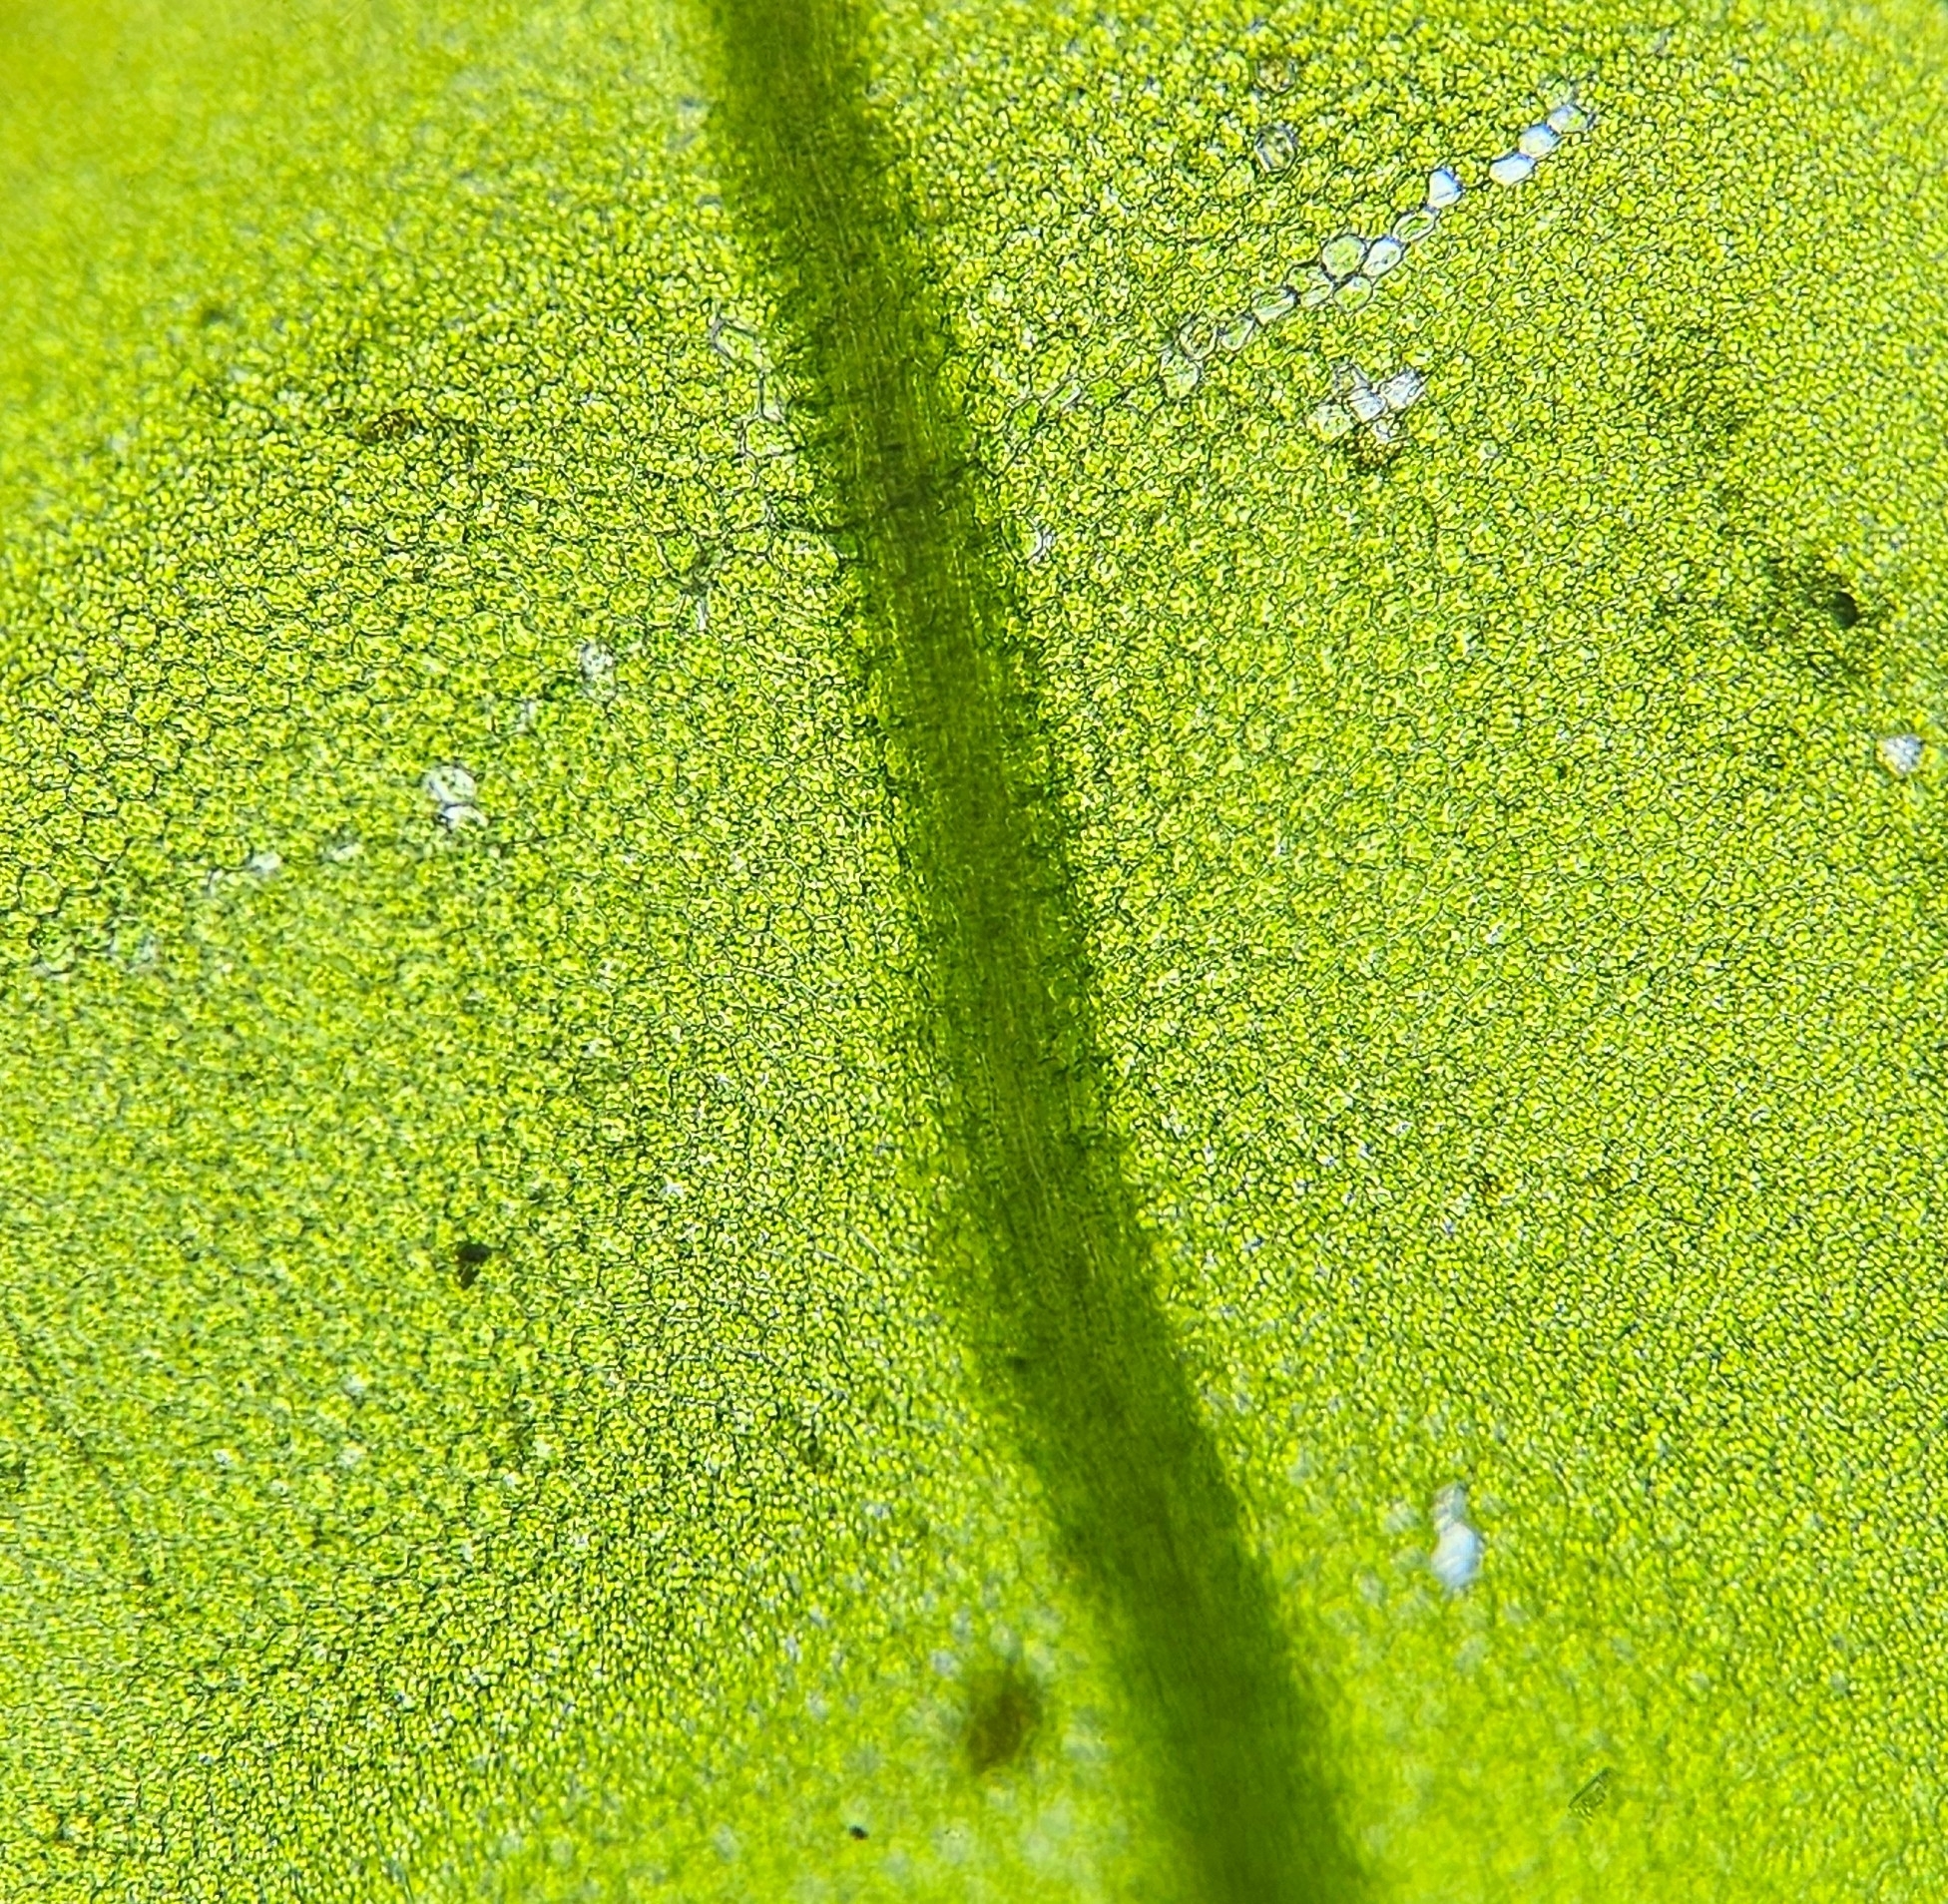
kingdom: Plantae
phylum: Bryophyta
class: Bryopsida
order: Bryales
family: Mniaceae
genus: Plagiomnium
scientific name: Plagiomnium cuspidatum
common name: Woodsy leafy moss
